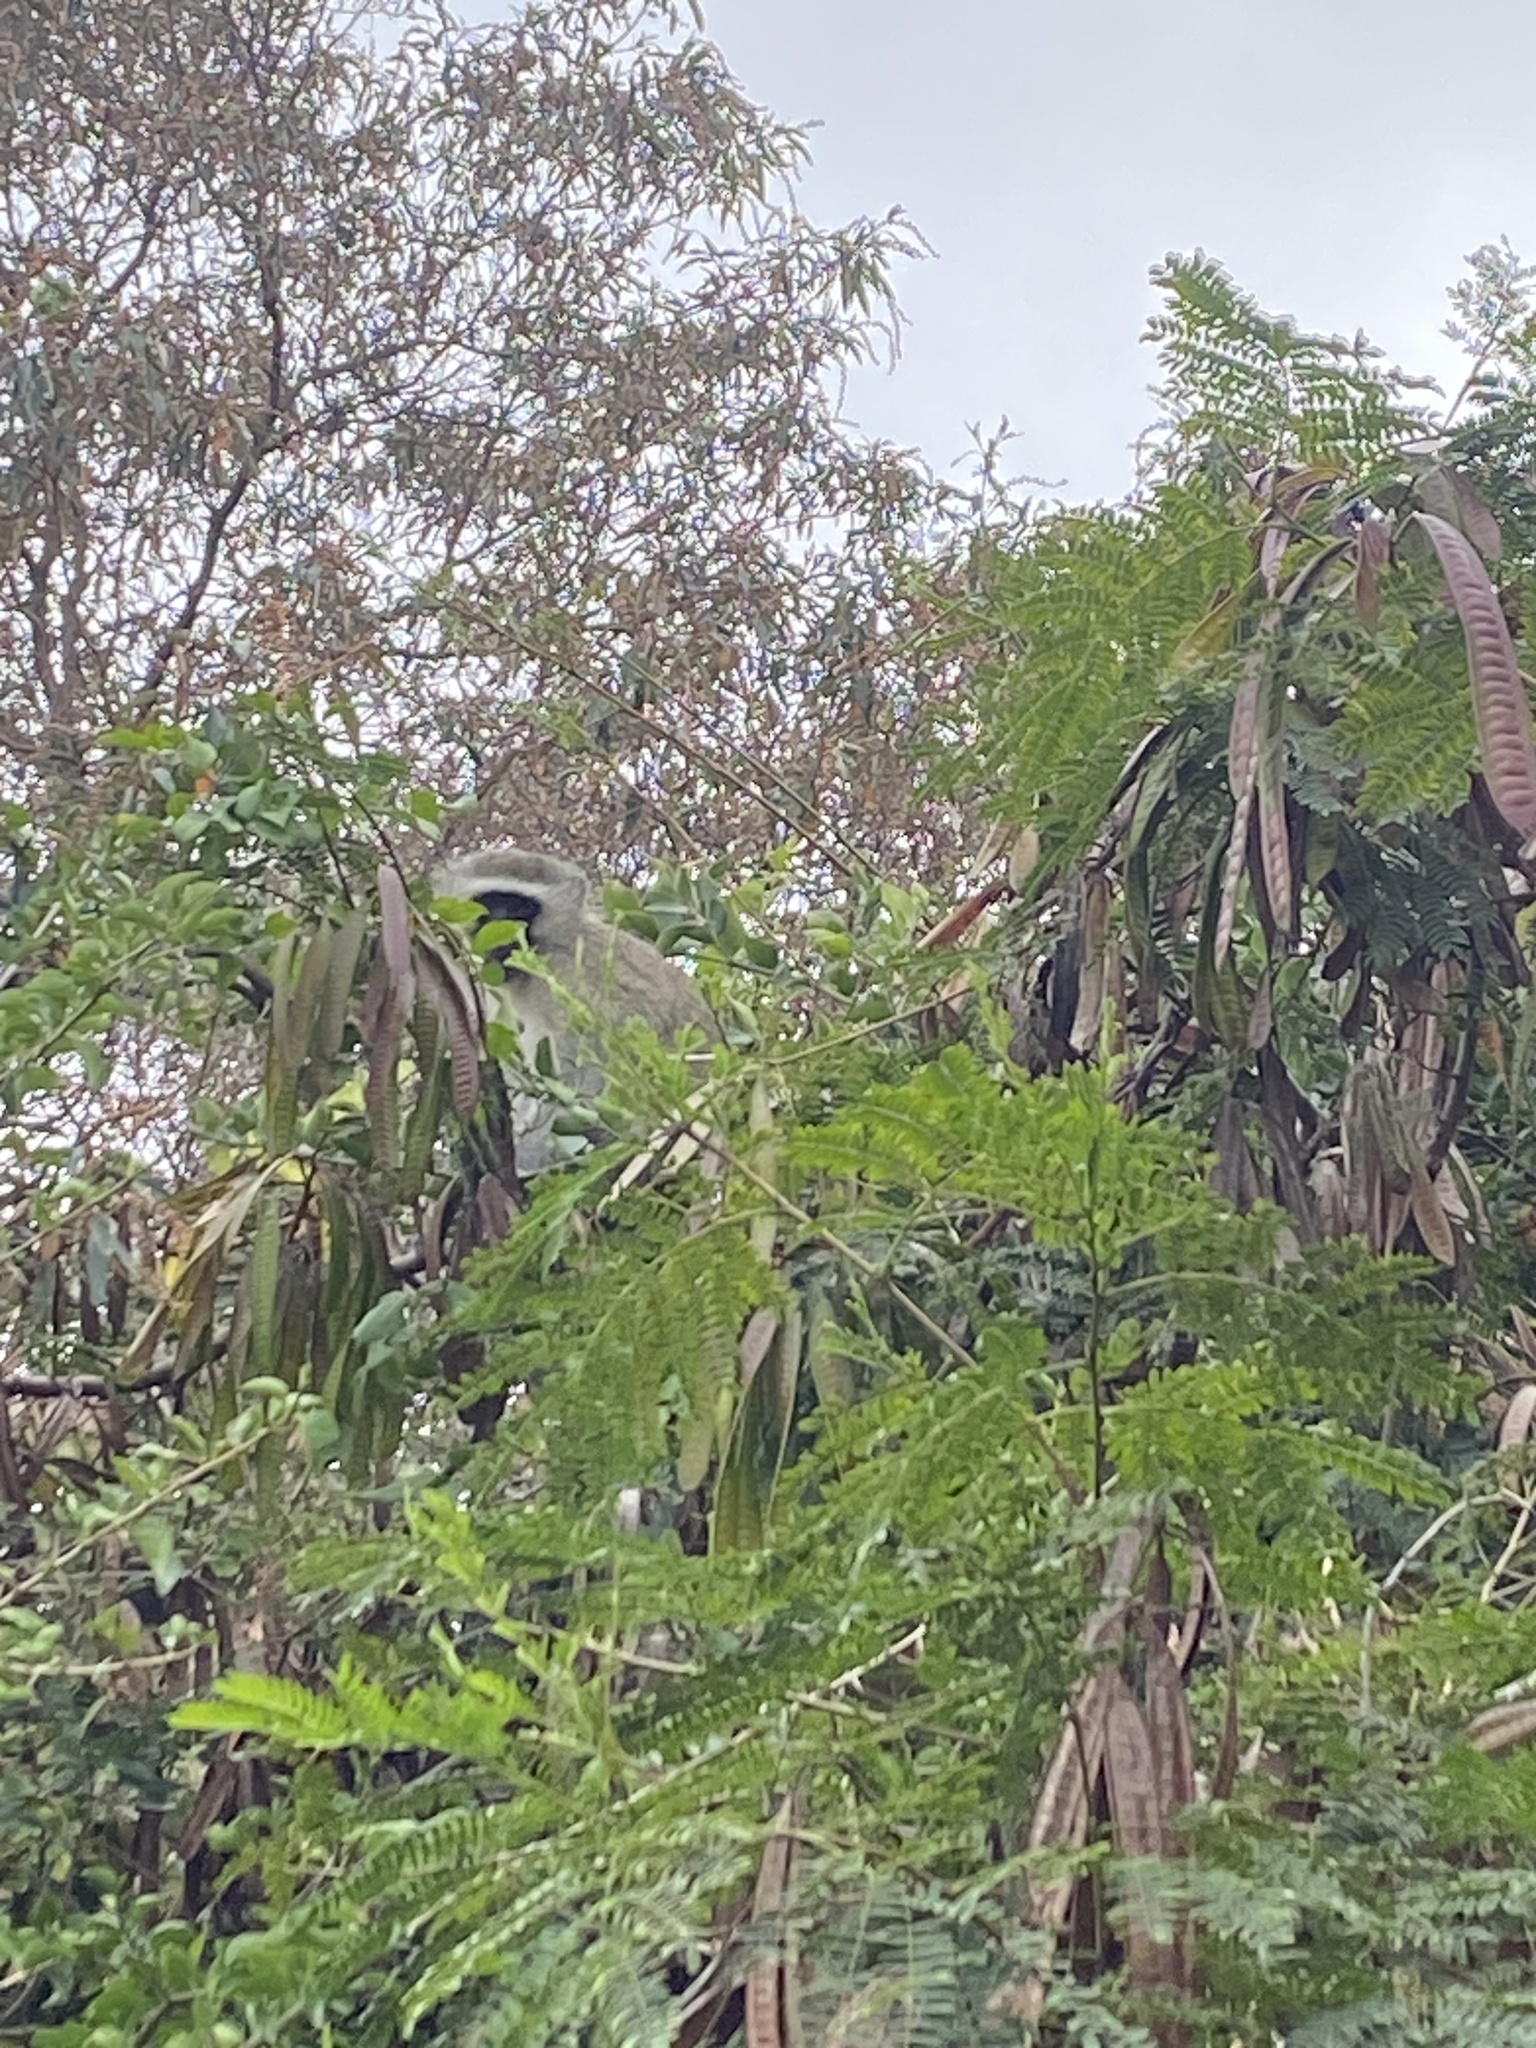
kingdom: Animalia
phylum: Chordata
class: Mammalia
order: Primates
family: Cercopithecidae
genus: Chlorocebus
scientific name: Chlorocebus pygerythrus
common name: Vervet monkey
